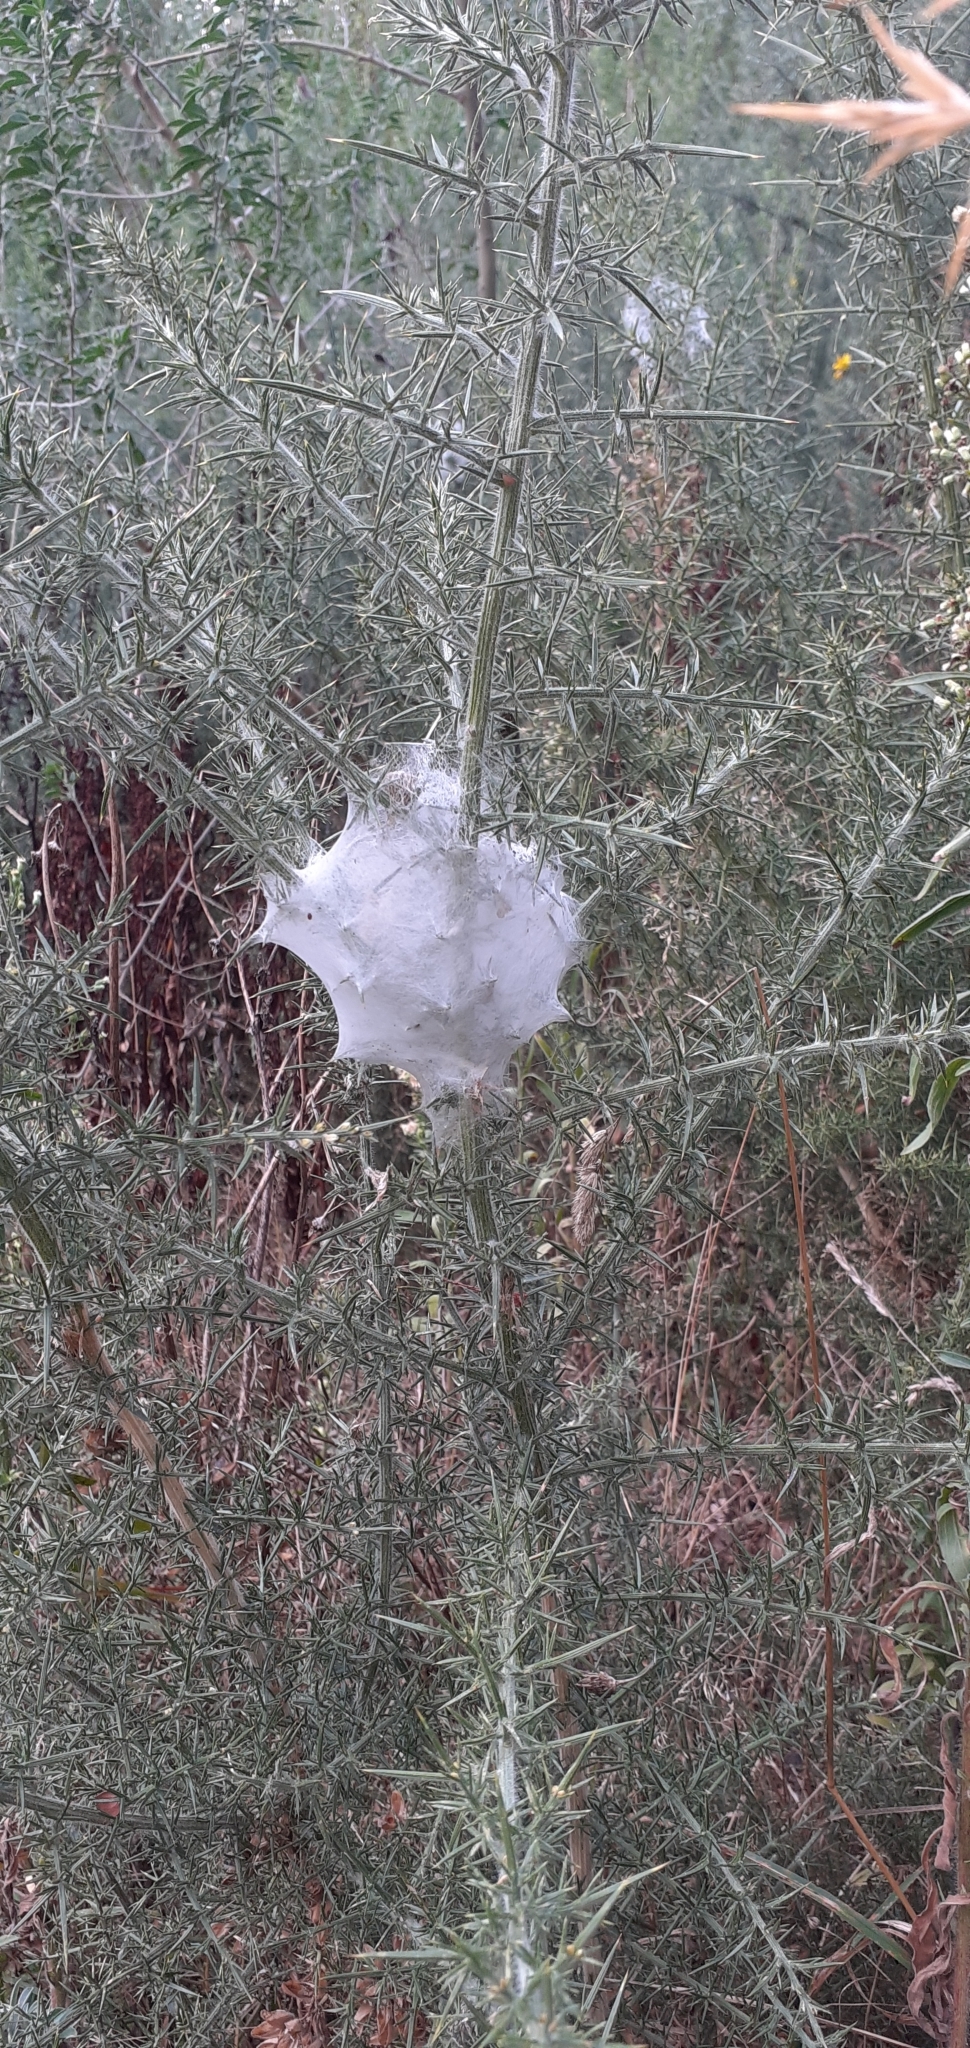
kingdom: Animalia
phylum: Arthropoda
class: Arachnida
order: Araneae
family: Pisauridae
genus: Dolomedes
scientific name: Dolomedes minor
